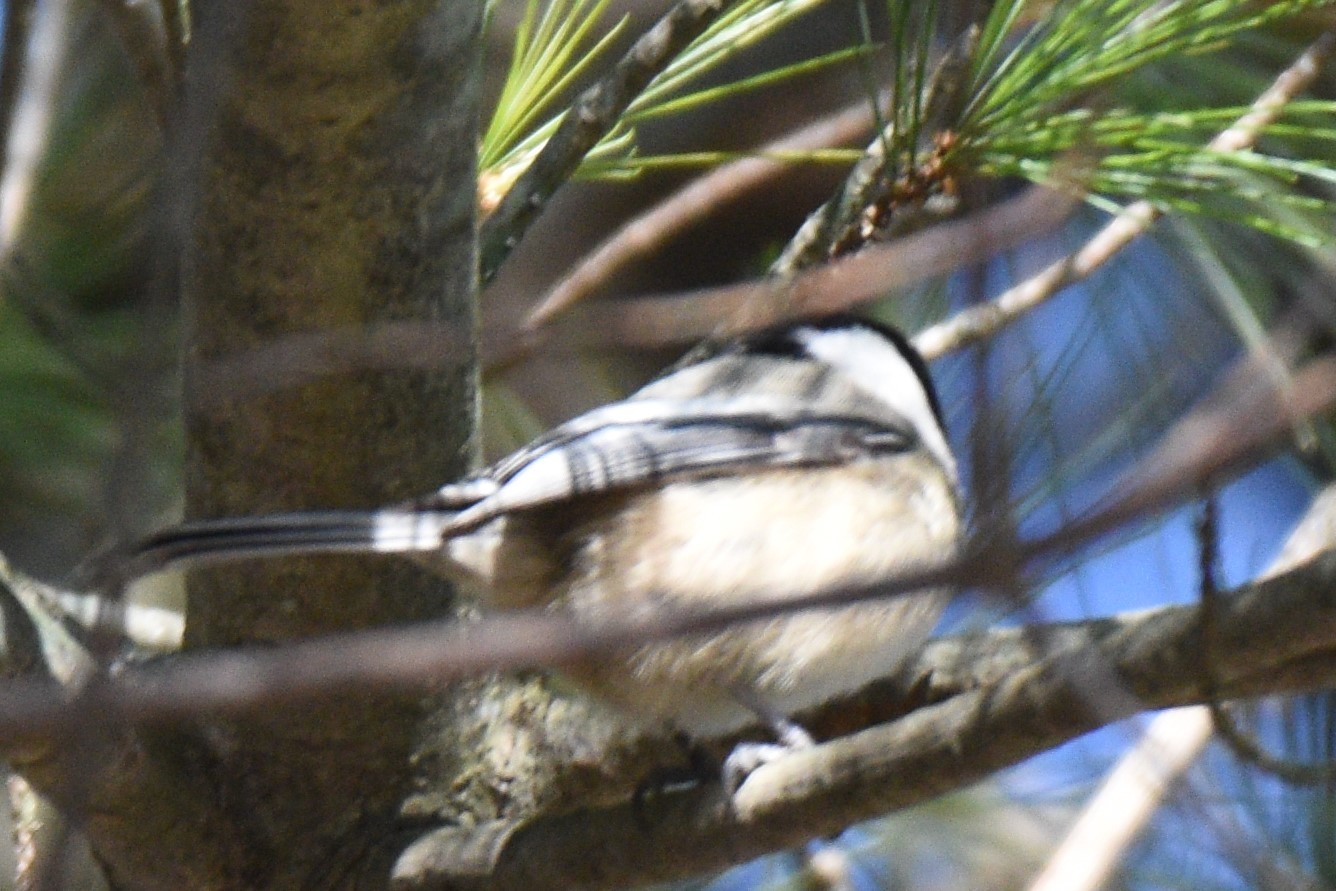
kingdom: Animalia
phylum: Chordata
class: Aves
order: Passeriformes
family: Paridae
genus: Poecile
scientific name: Poecile atricapillus
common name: Black-capped chickadee
